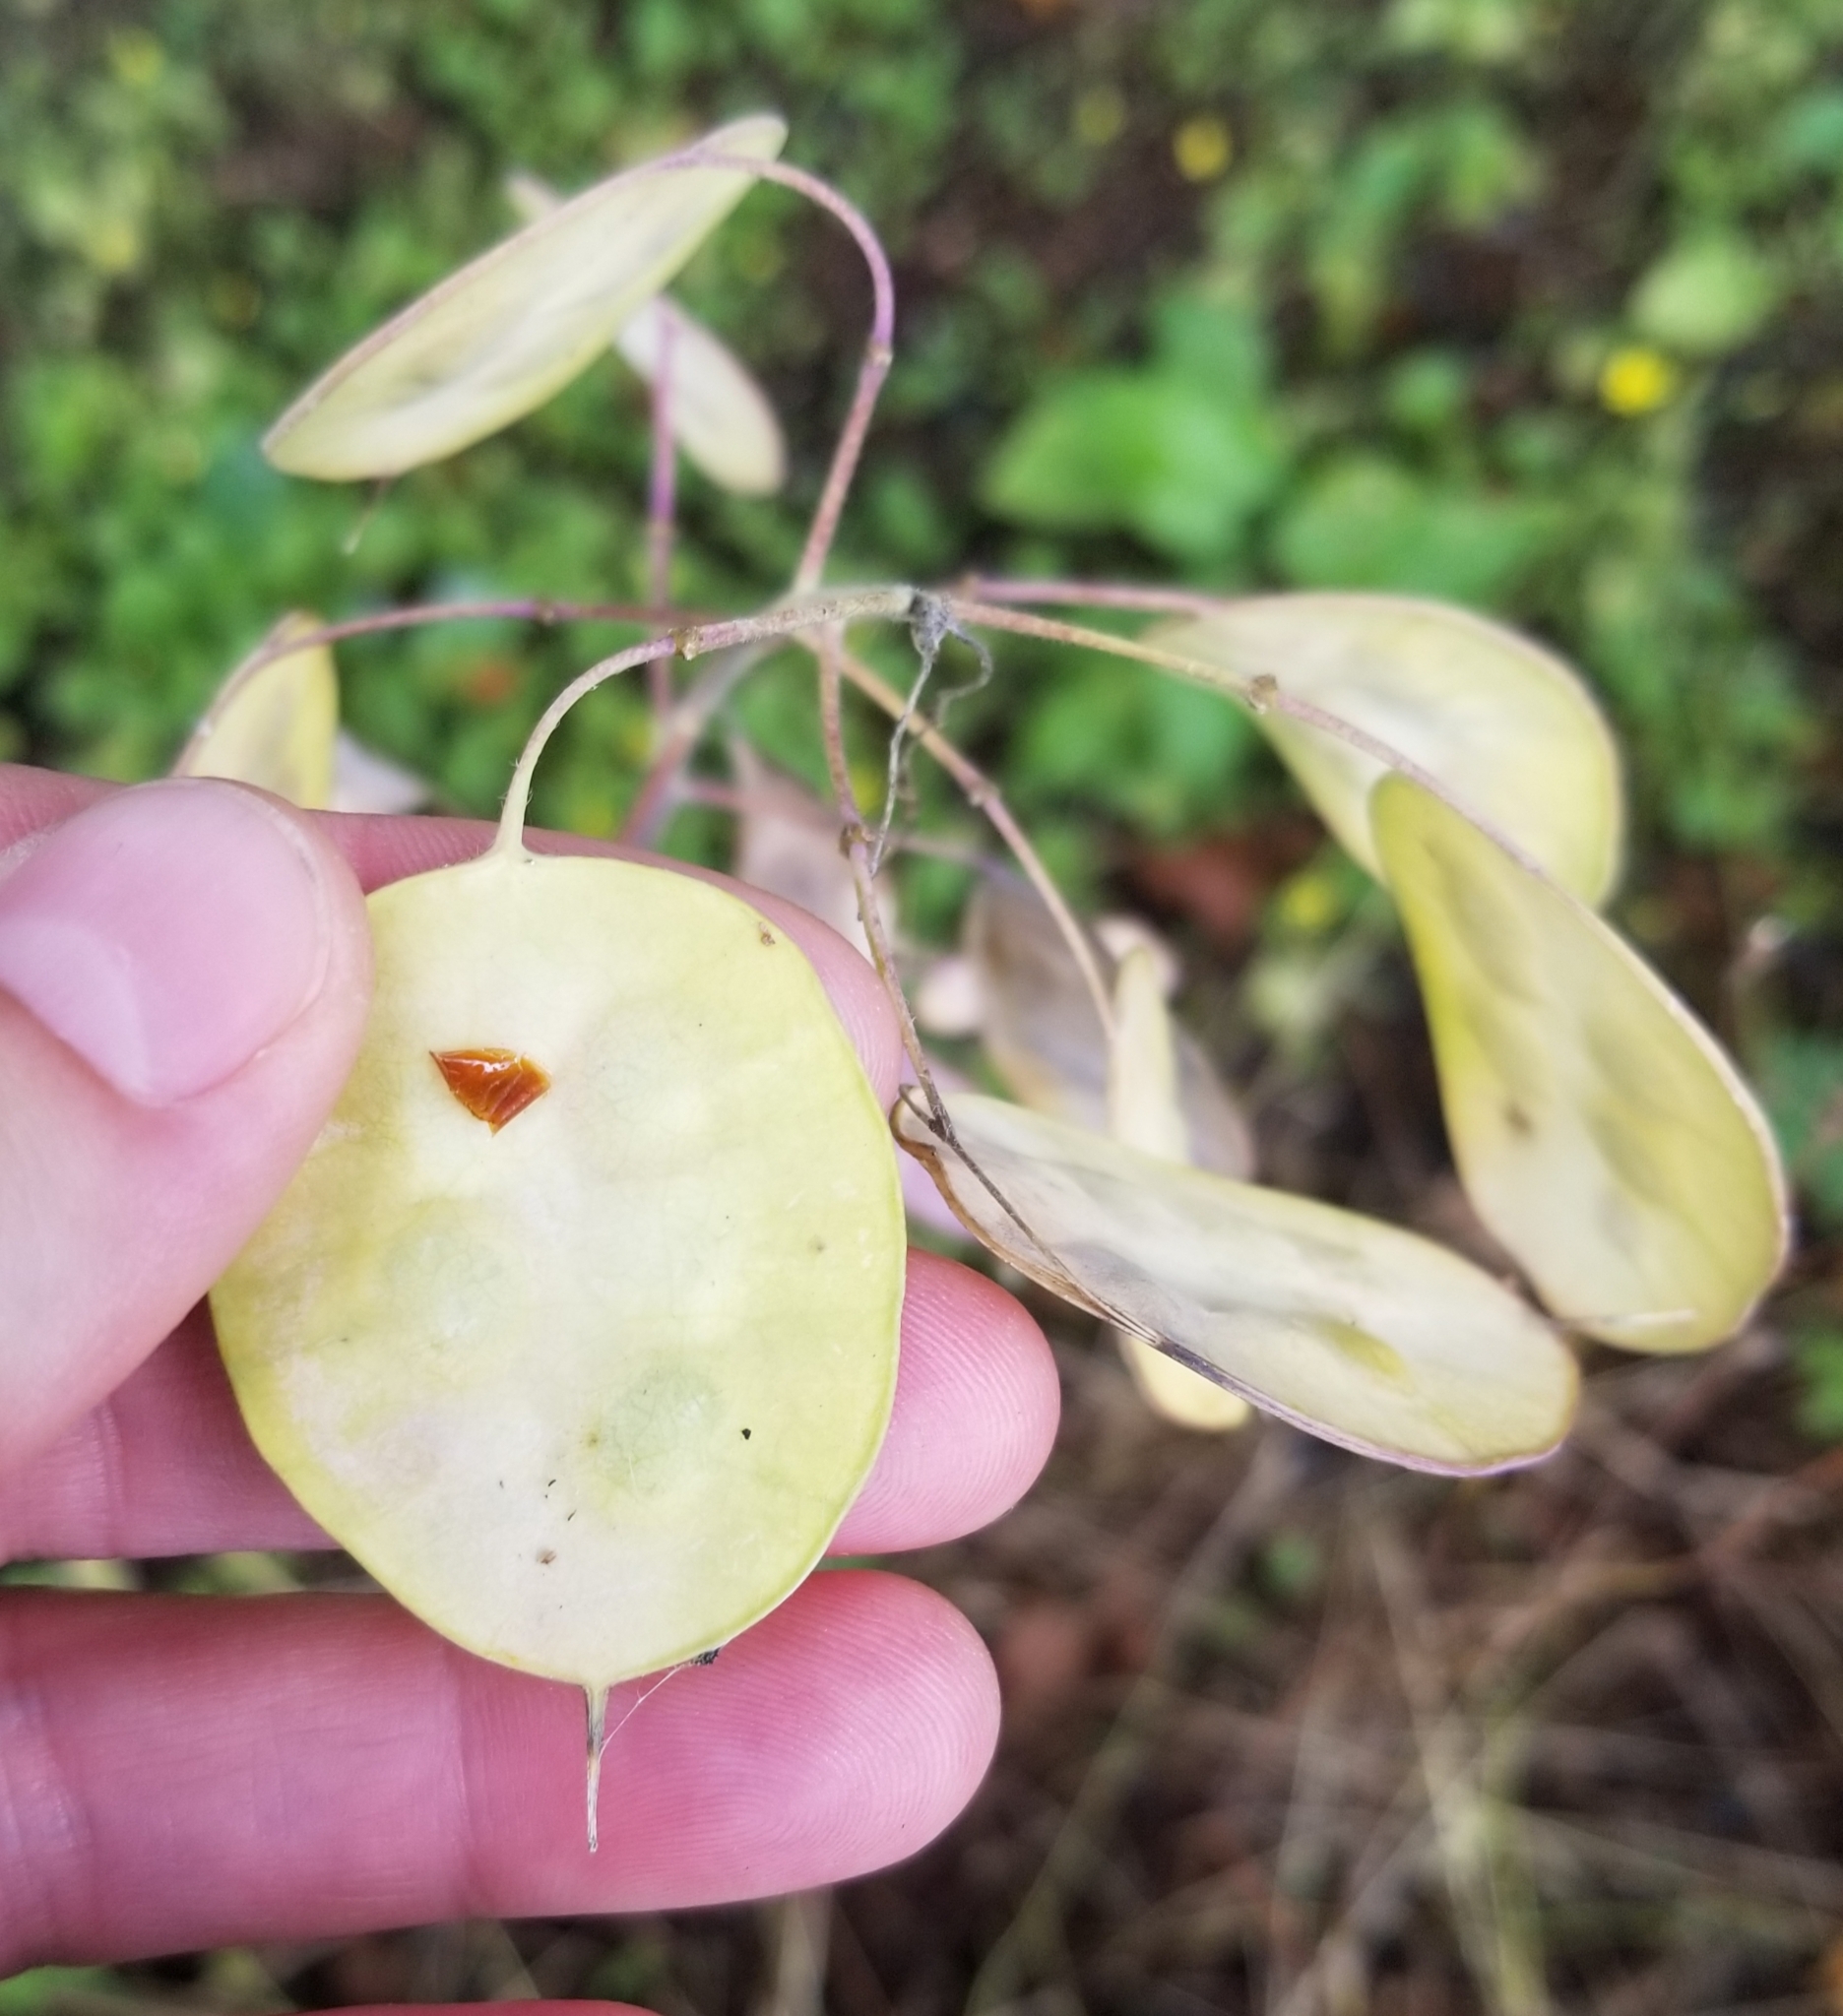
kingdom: Plantae
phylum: Tracheophyta
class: Magnoliopsida
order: Brassicales
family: Brassicaceae
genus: Lunaria
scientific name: Lunaria annua
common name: Honesty
